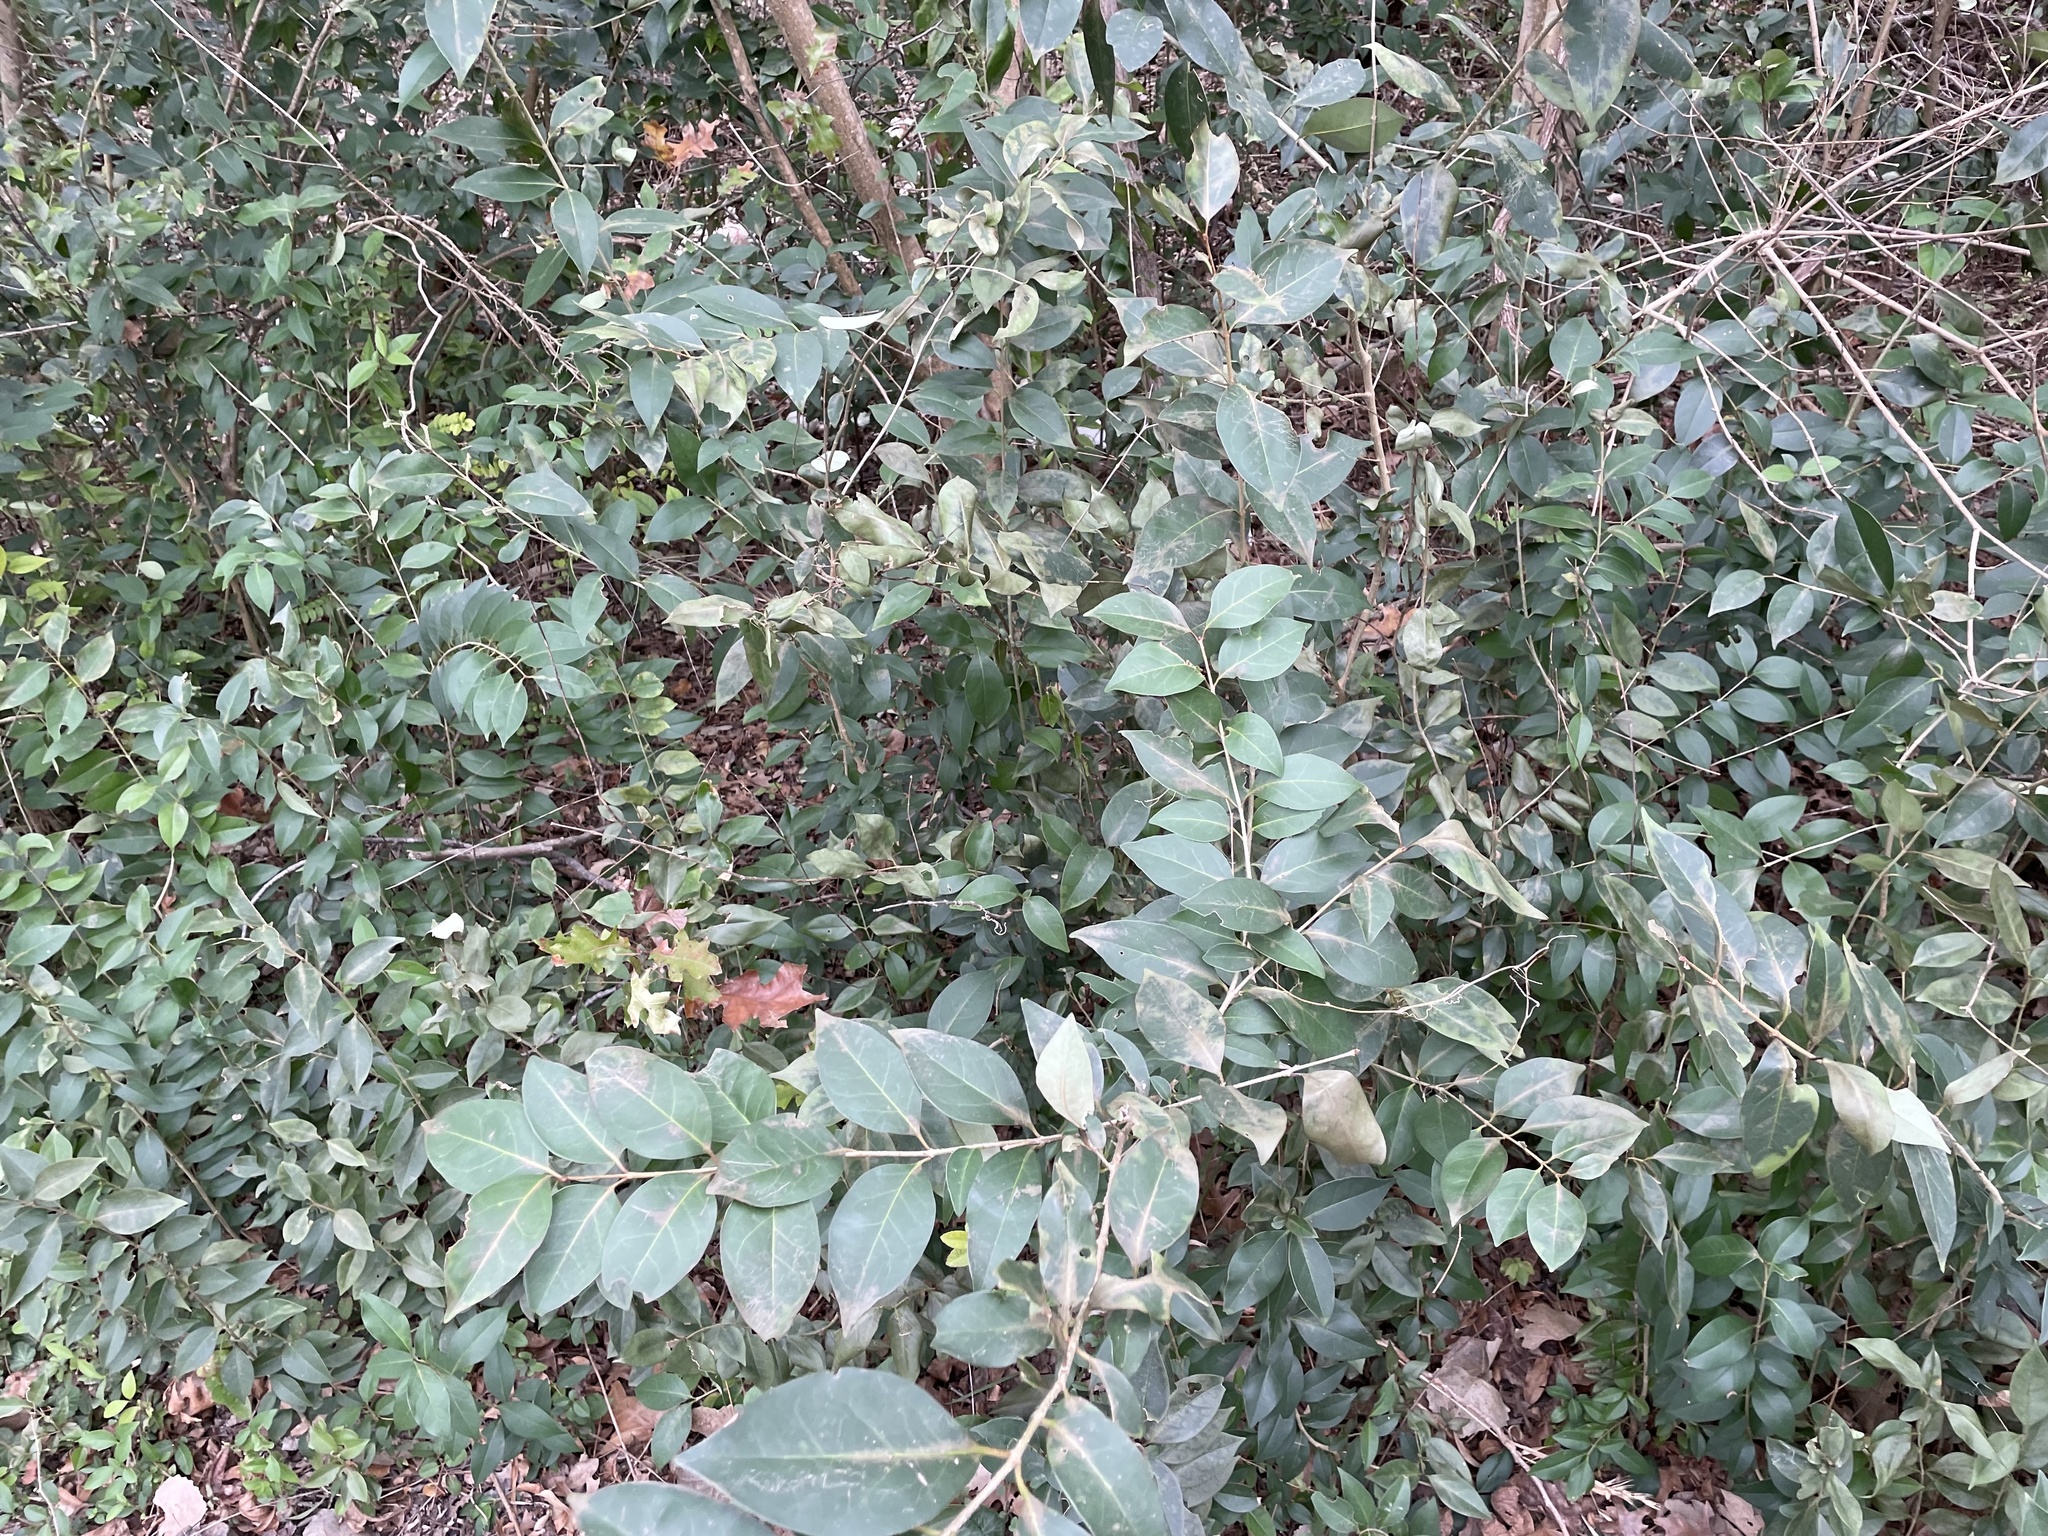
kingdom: Plantae
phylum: Tracheophyta
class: Magnoliopsida
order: Lamiales
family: Oleaceae
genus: Ligustrum
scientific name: Ligustrum lucidum
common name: Glossy privet
